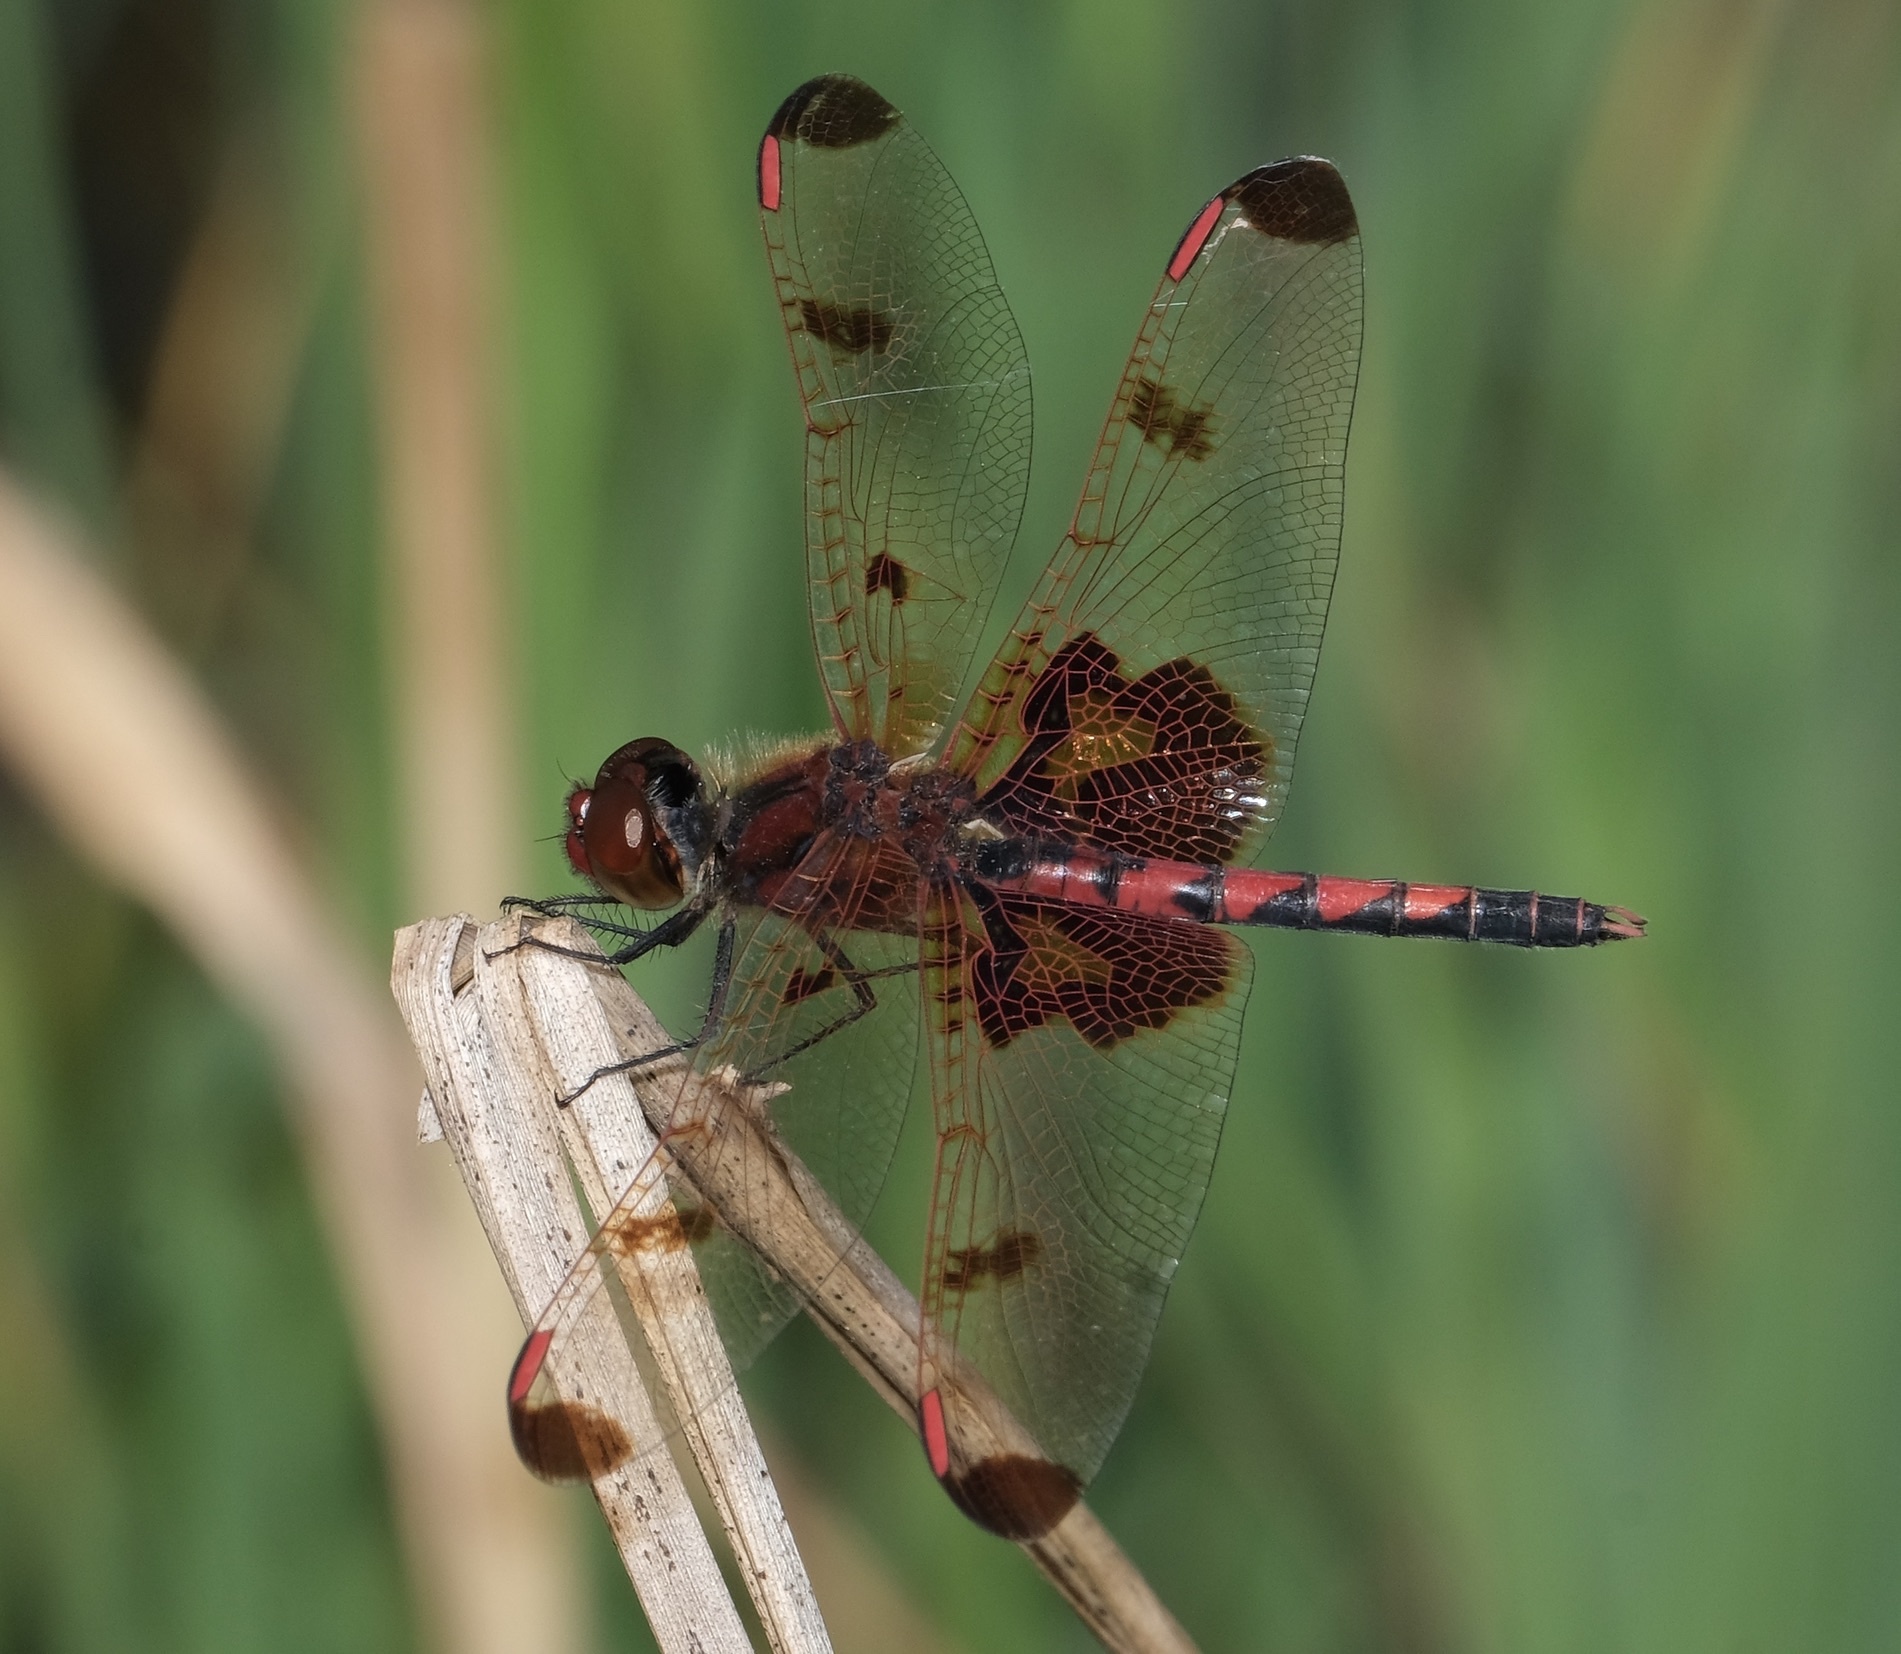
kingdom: Animalia
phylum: Arthropoda
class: Insecta
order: Odonata
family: Libellulidae
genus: Celithemis
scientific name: Celithemis elisa
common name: Calico pennant
